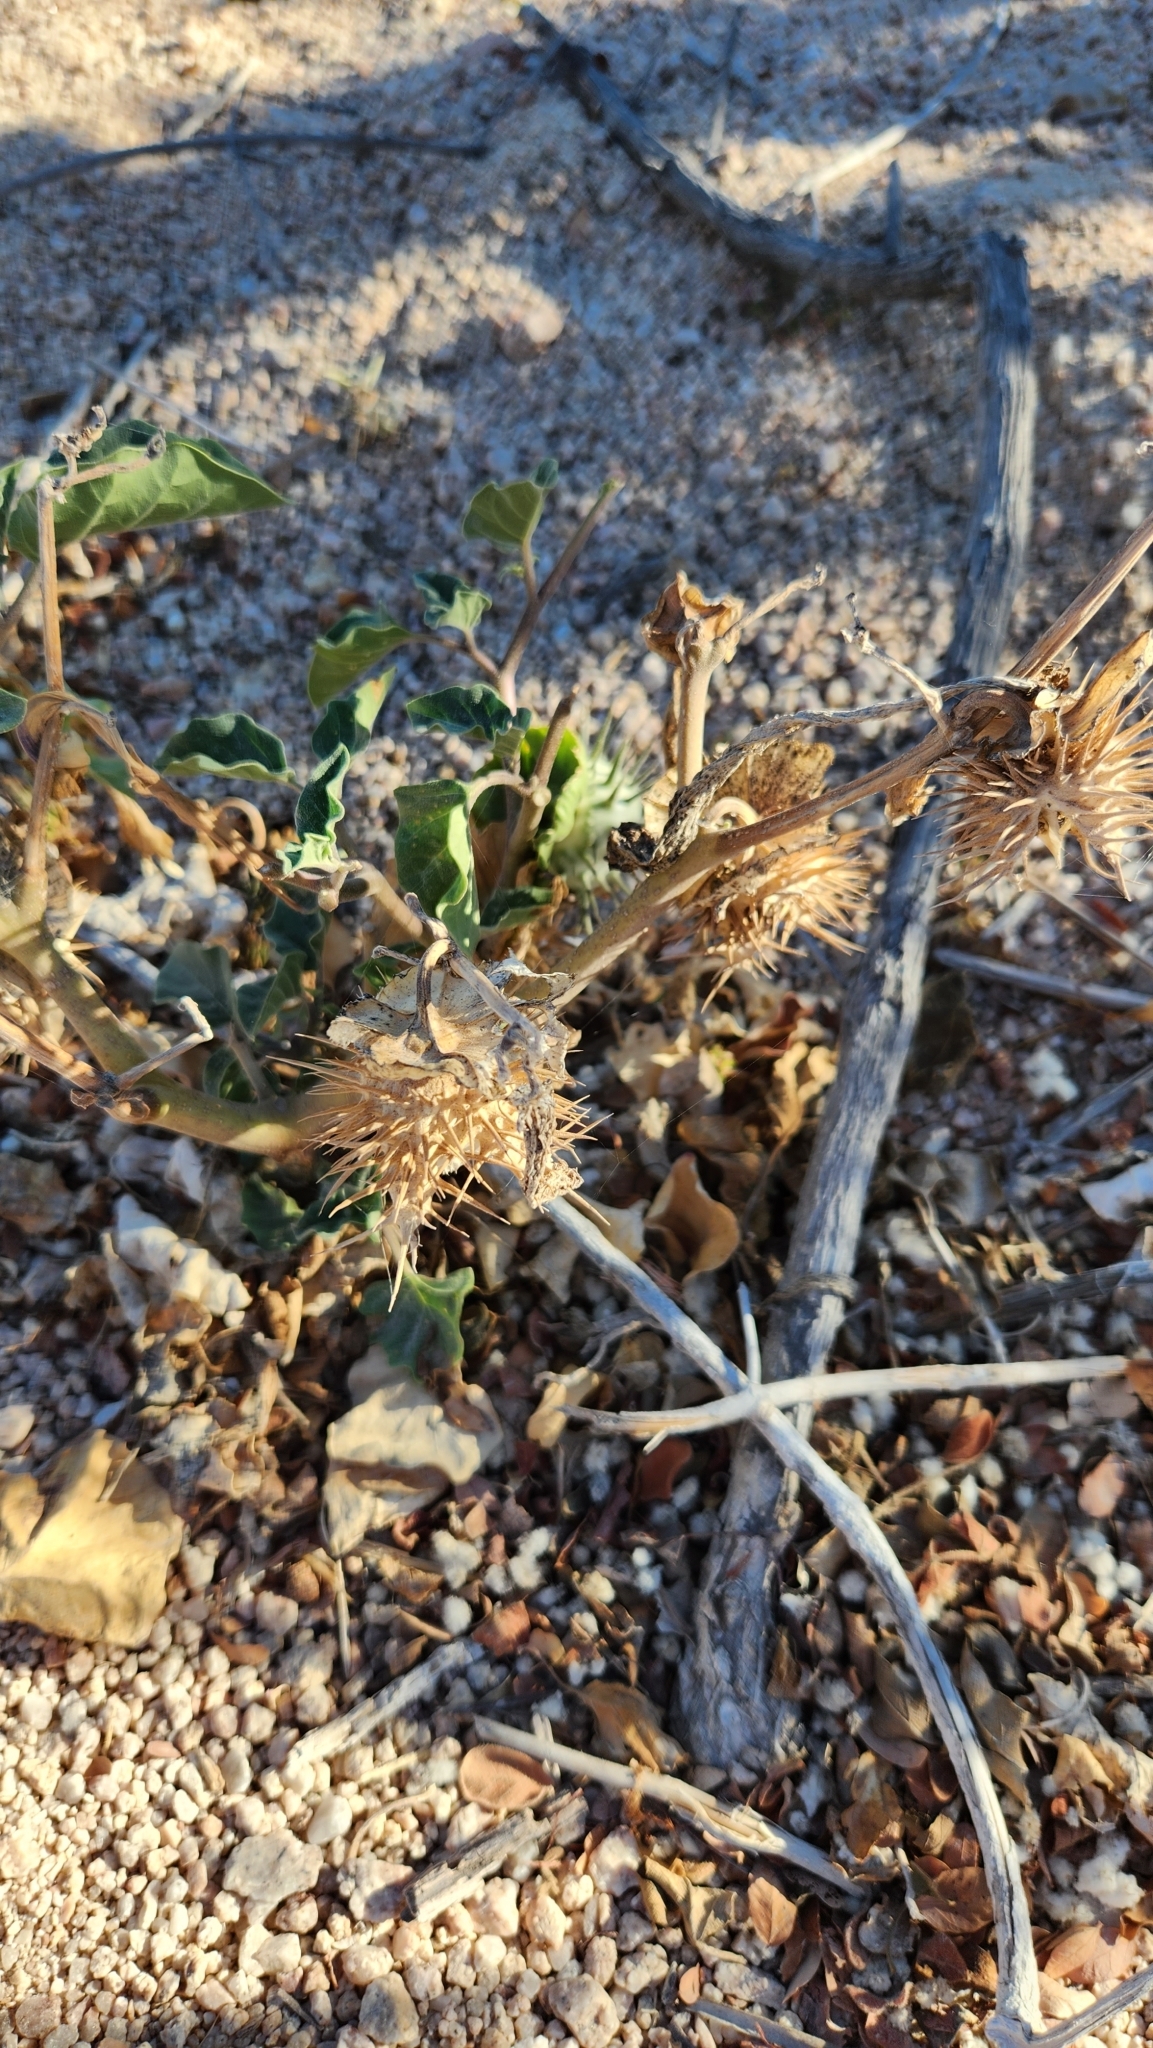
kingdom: Plantae
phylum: Tracheophyta
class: Magnoliopsida
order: Solanales
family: Solanaceae
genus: Datura
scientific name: Datura discolor
